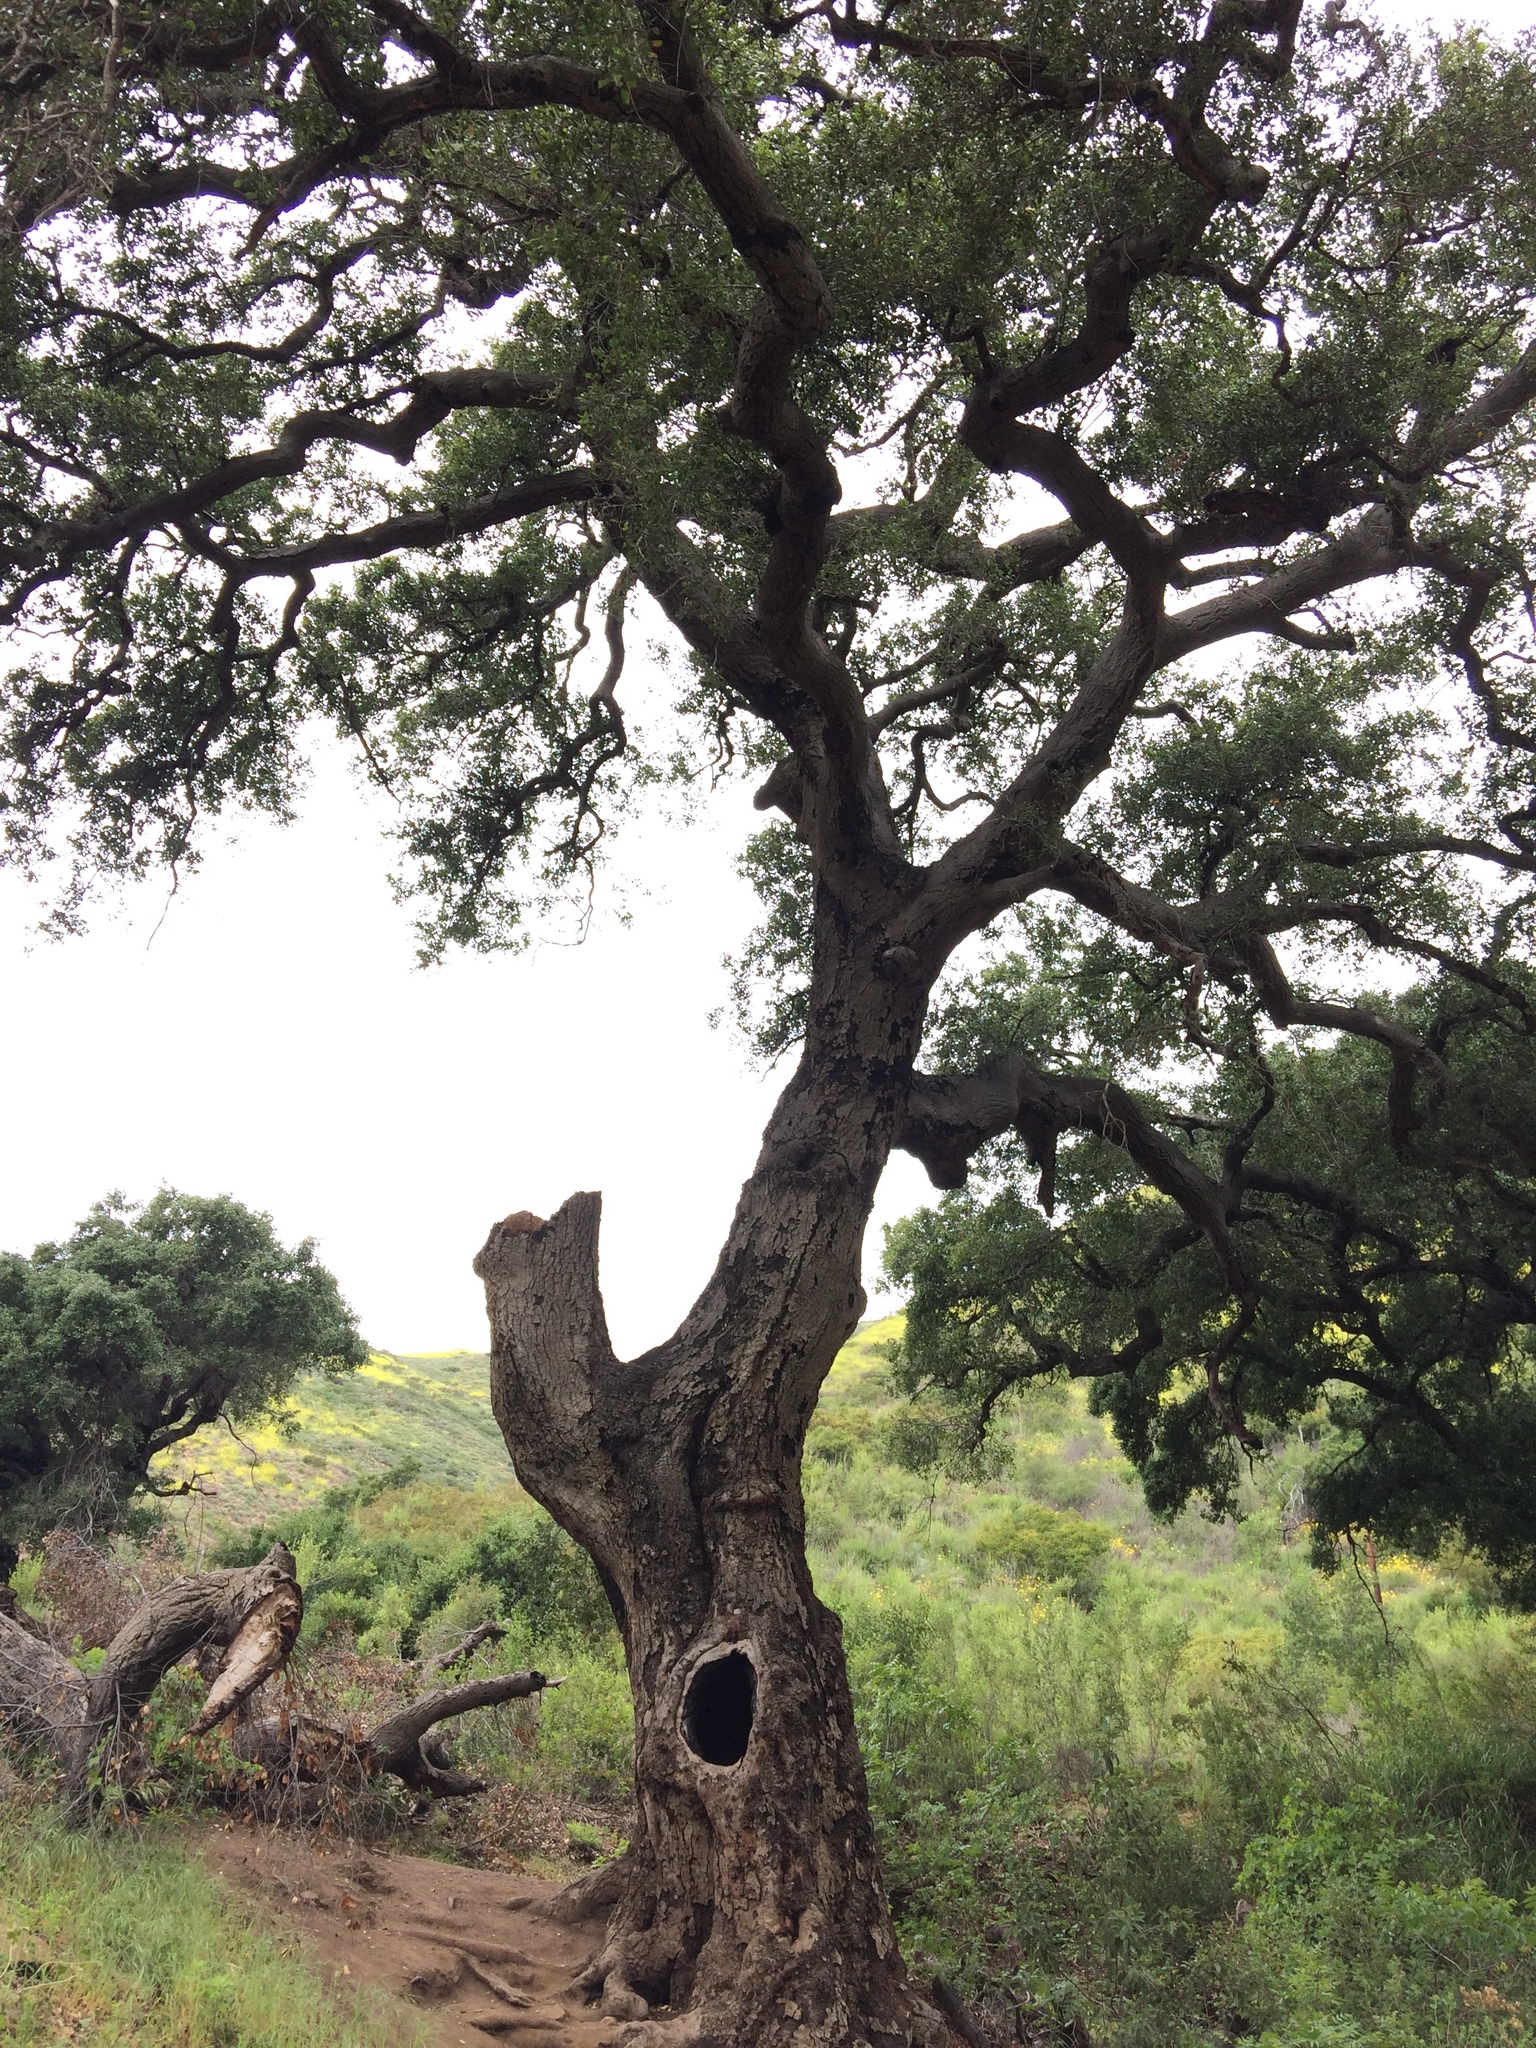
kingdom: Plantae
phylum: Tracheophyta
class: Magnoliopsida
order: Fagales
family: Fagaceae
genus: Quercus
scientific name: Quercus agrifolia
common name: California live oak
